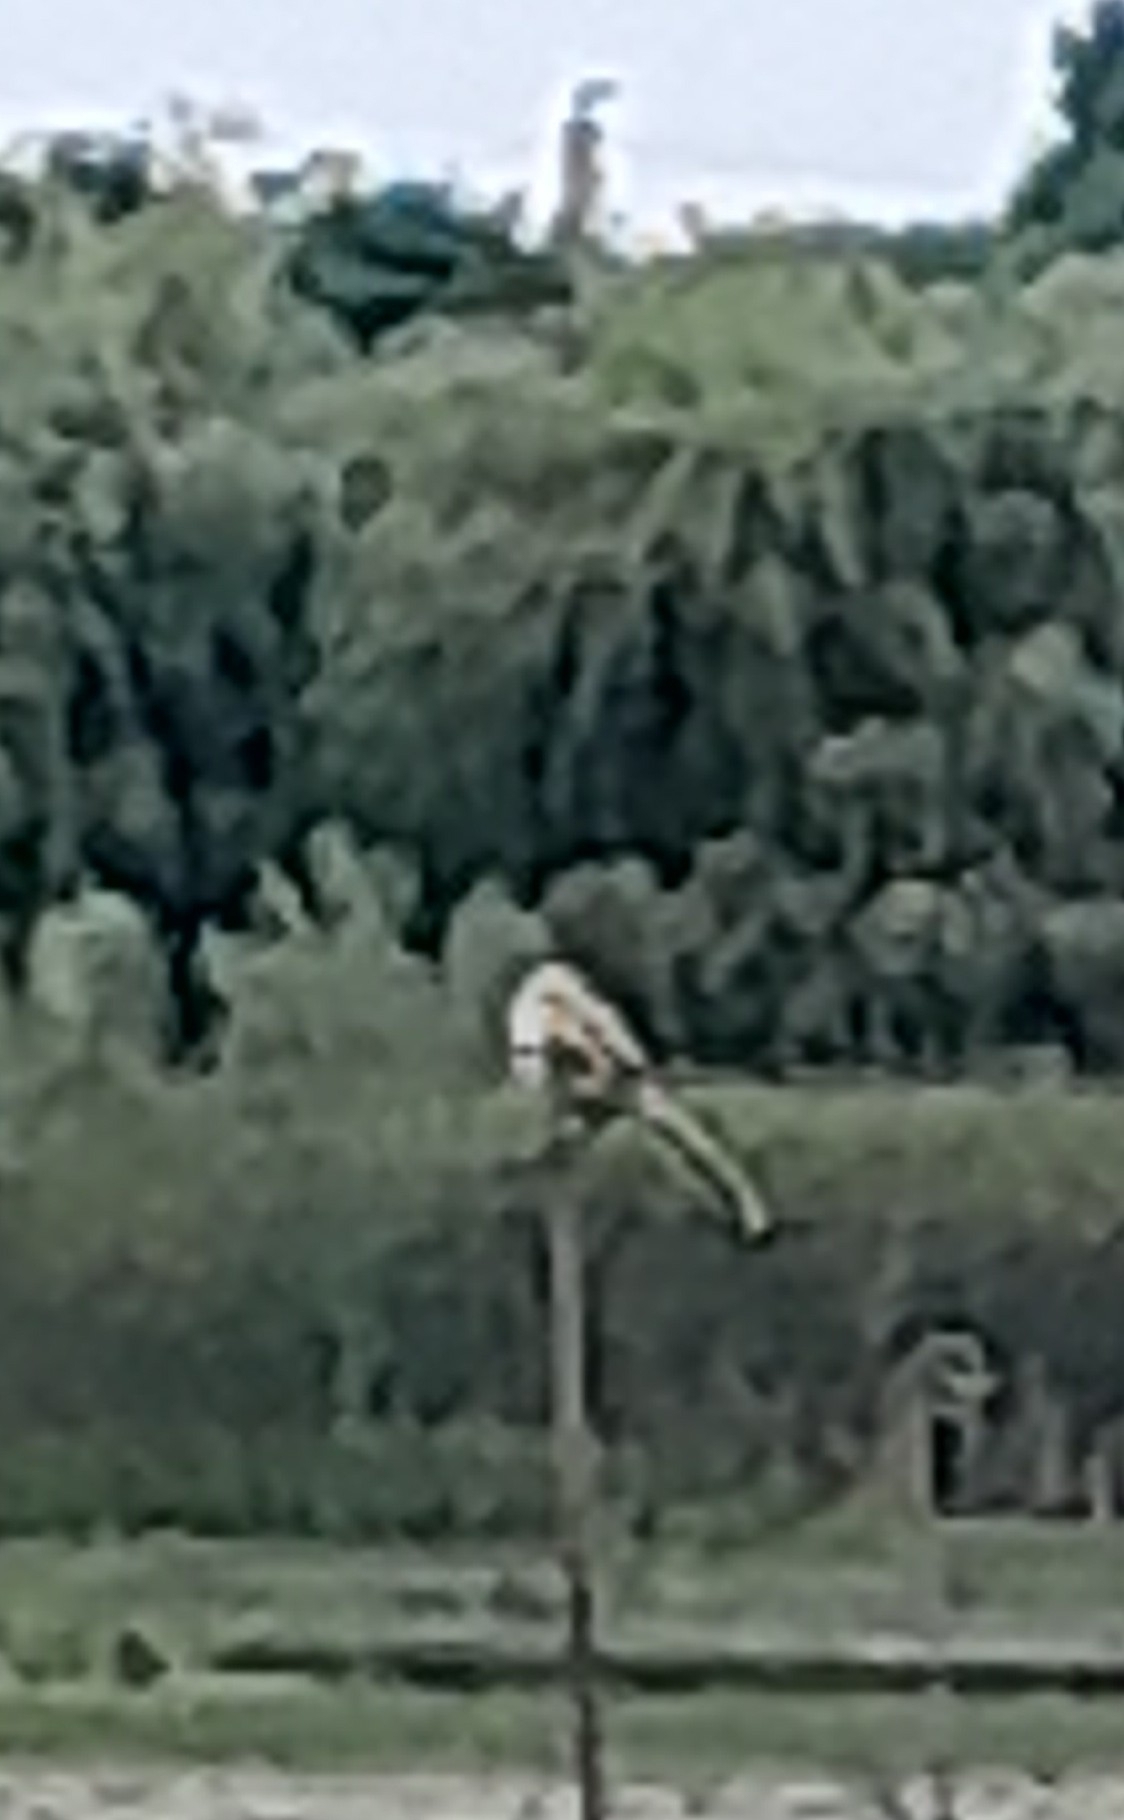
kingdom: Animalia
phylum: Chordata
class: Aves
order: Passeriformes
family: Panuridae
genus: Panurus
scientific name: Panurus biarmicus
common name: Bearded reedling
